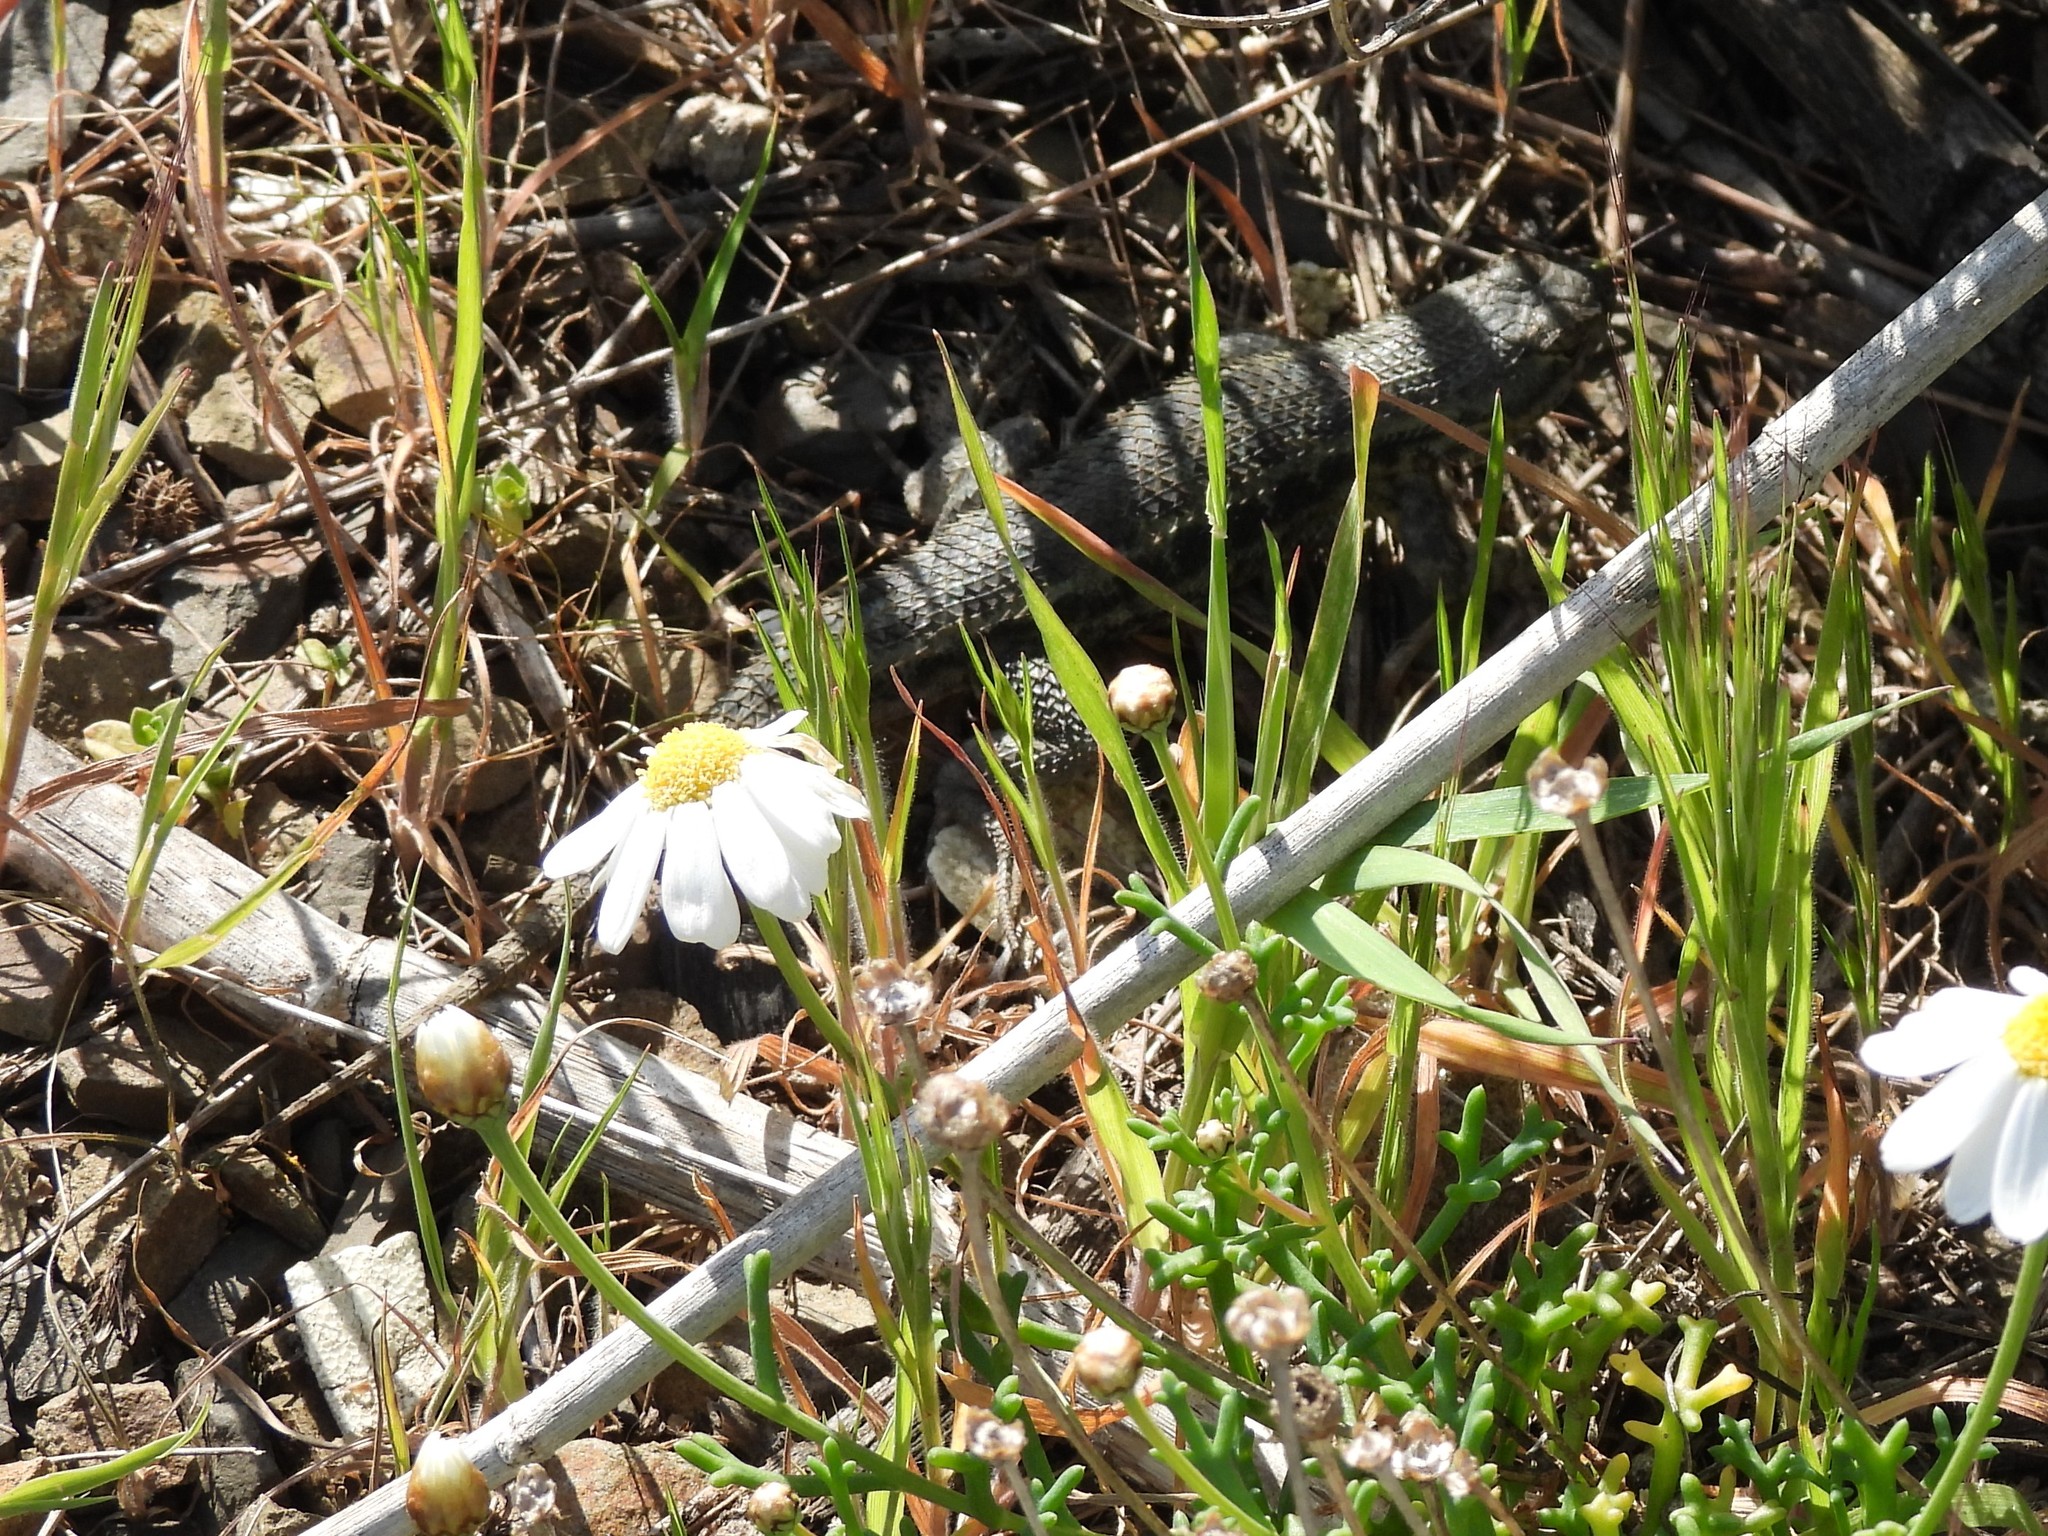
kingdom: Animalia
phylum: Chordata
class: Squamata
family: Phrynosomatidae
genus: Sceloporus
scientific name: Sceloporus occidentalis
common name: Western fence lizard
